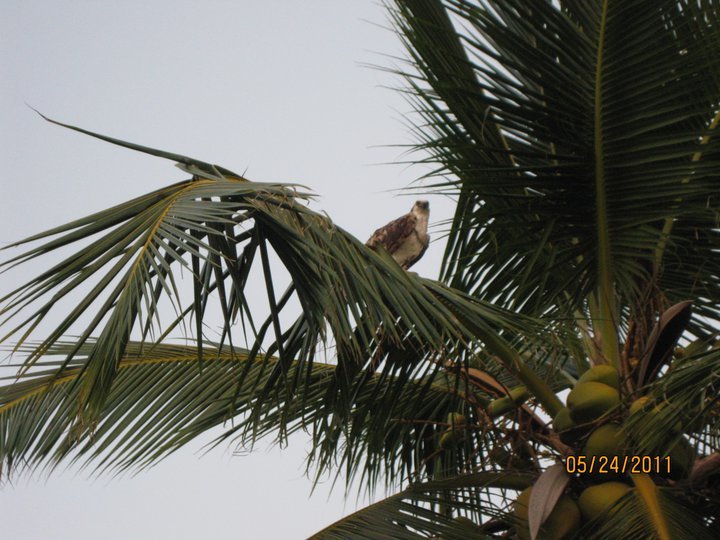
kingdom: Animalia
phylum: Chordata
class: Aves
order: Accipitriformes
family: Pandionidae
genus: Pandion
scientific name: Pandion haliaetus
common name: Osprey
